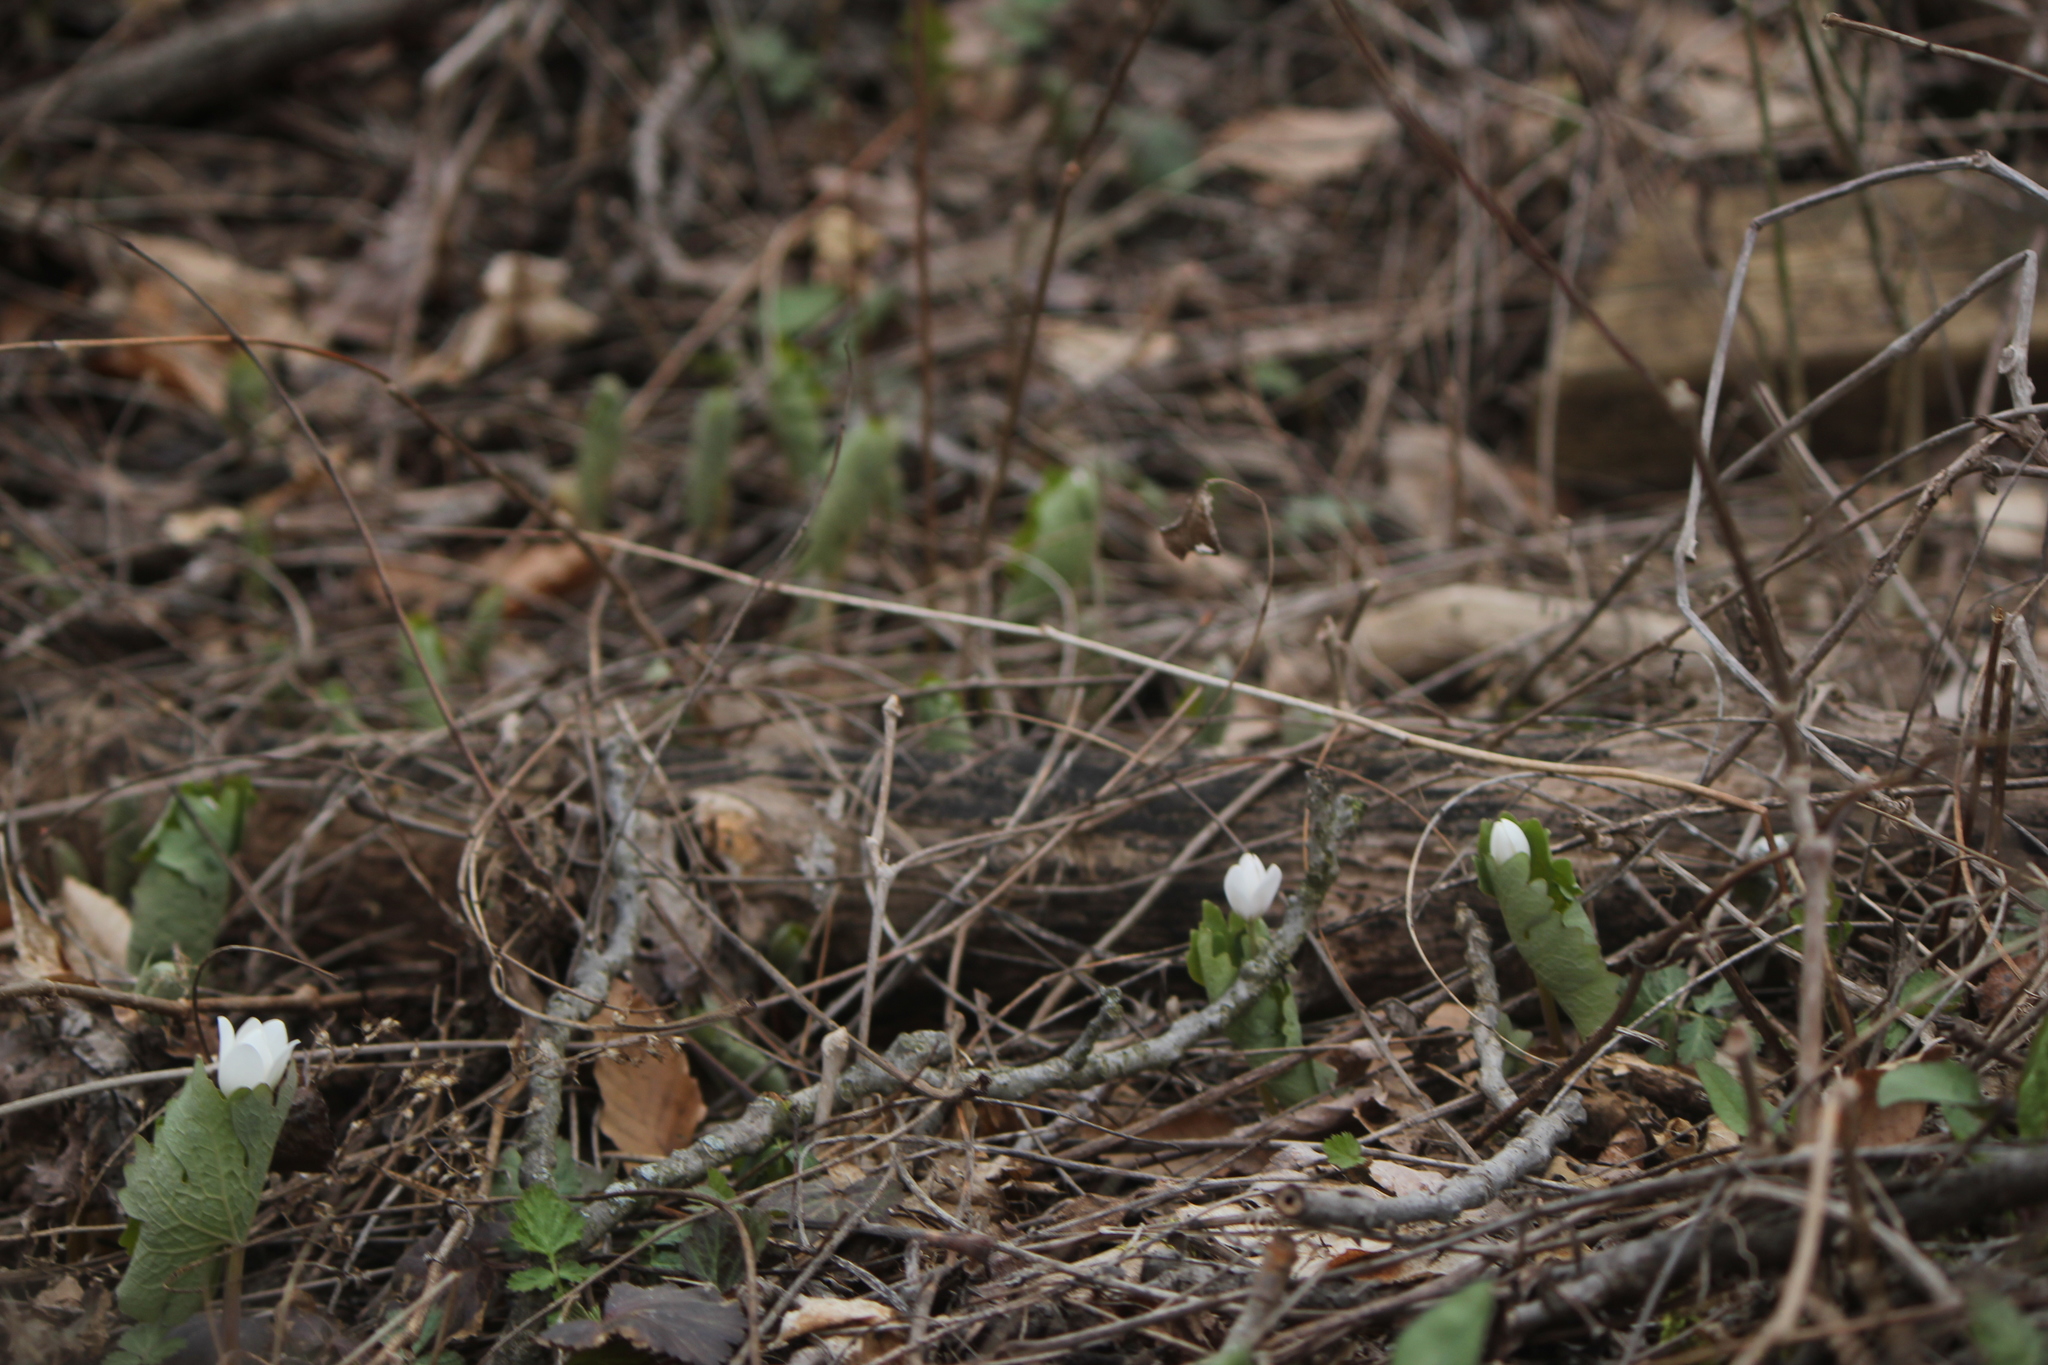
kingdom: Plantae
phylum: Tracheophyta
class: Magnoliopsida
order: Ranunculales
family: Papaveraceae
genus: Sanguinaria
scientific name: Sanguinaria canadensis
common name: Bloodroot
